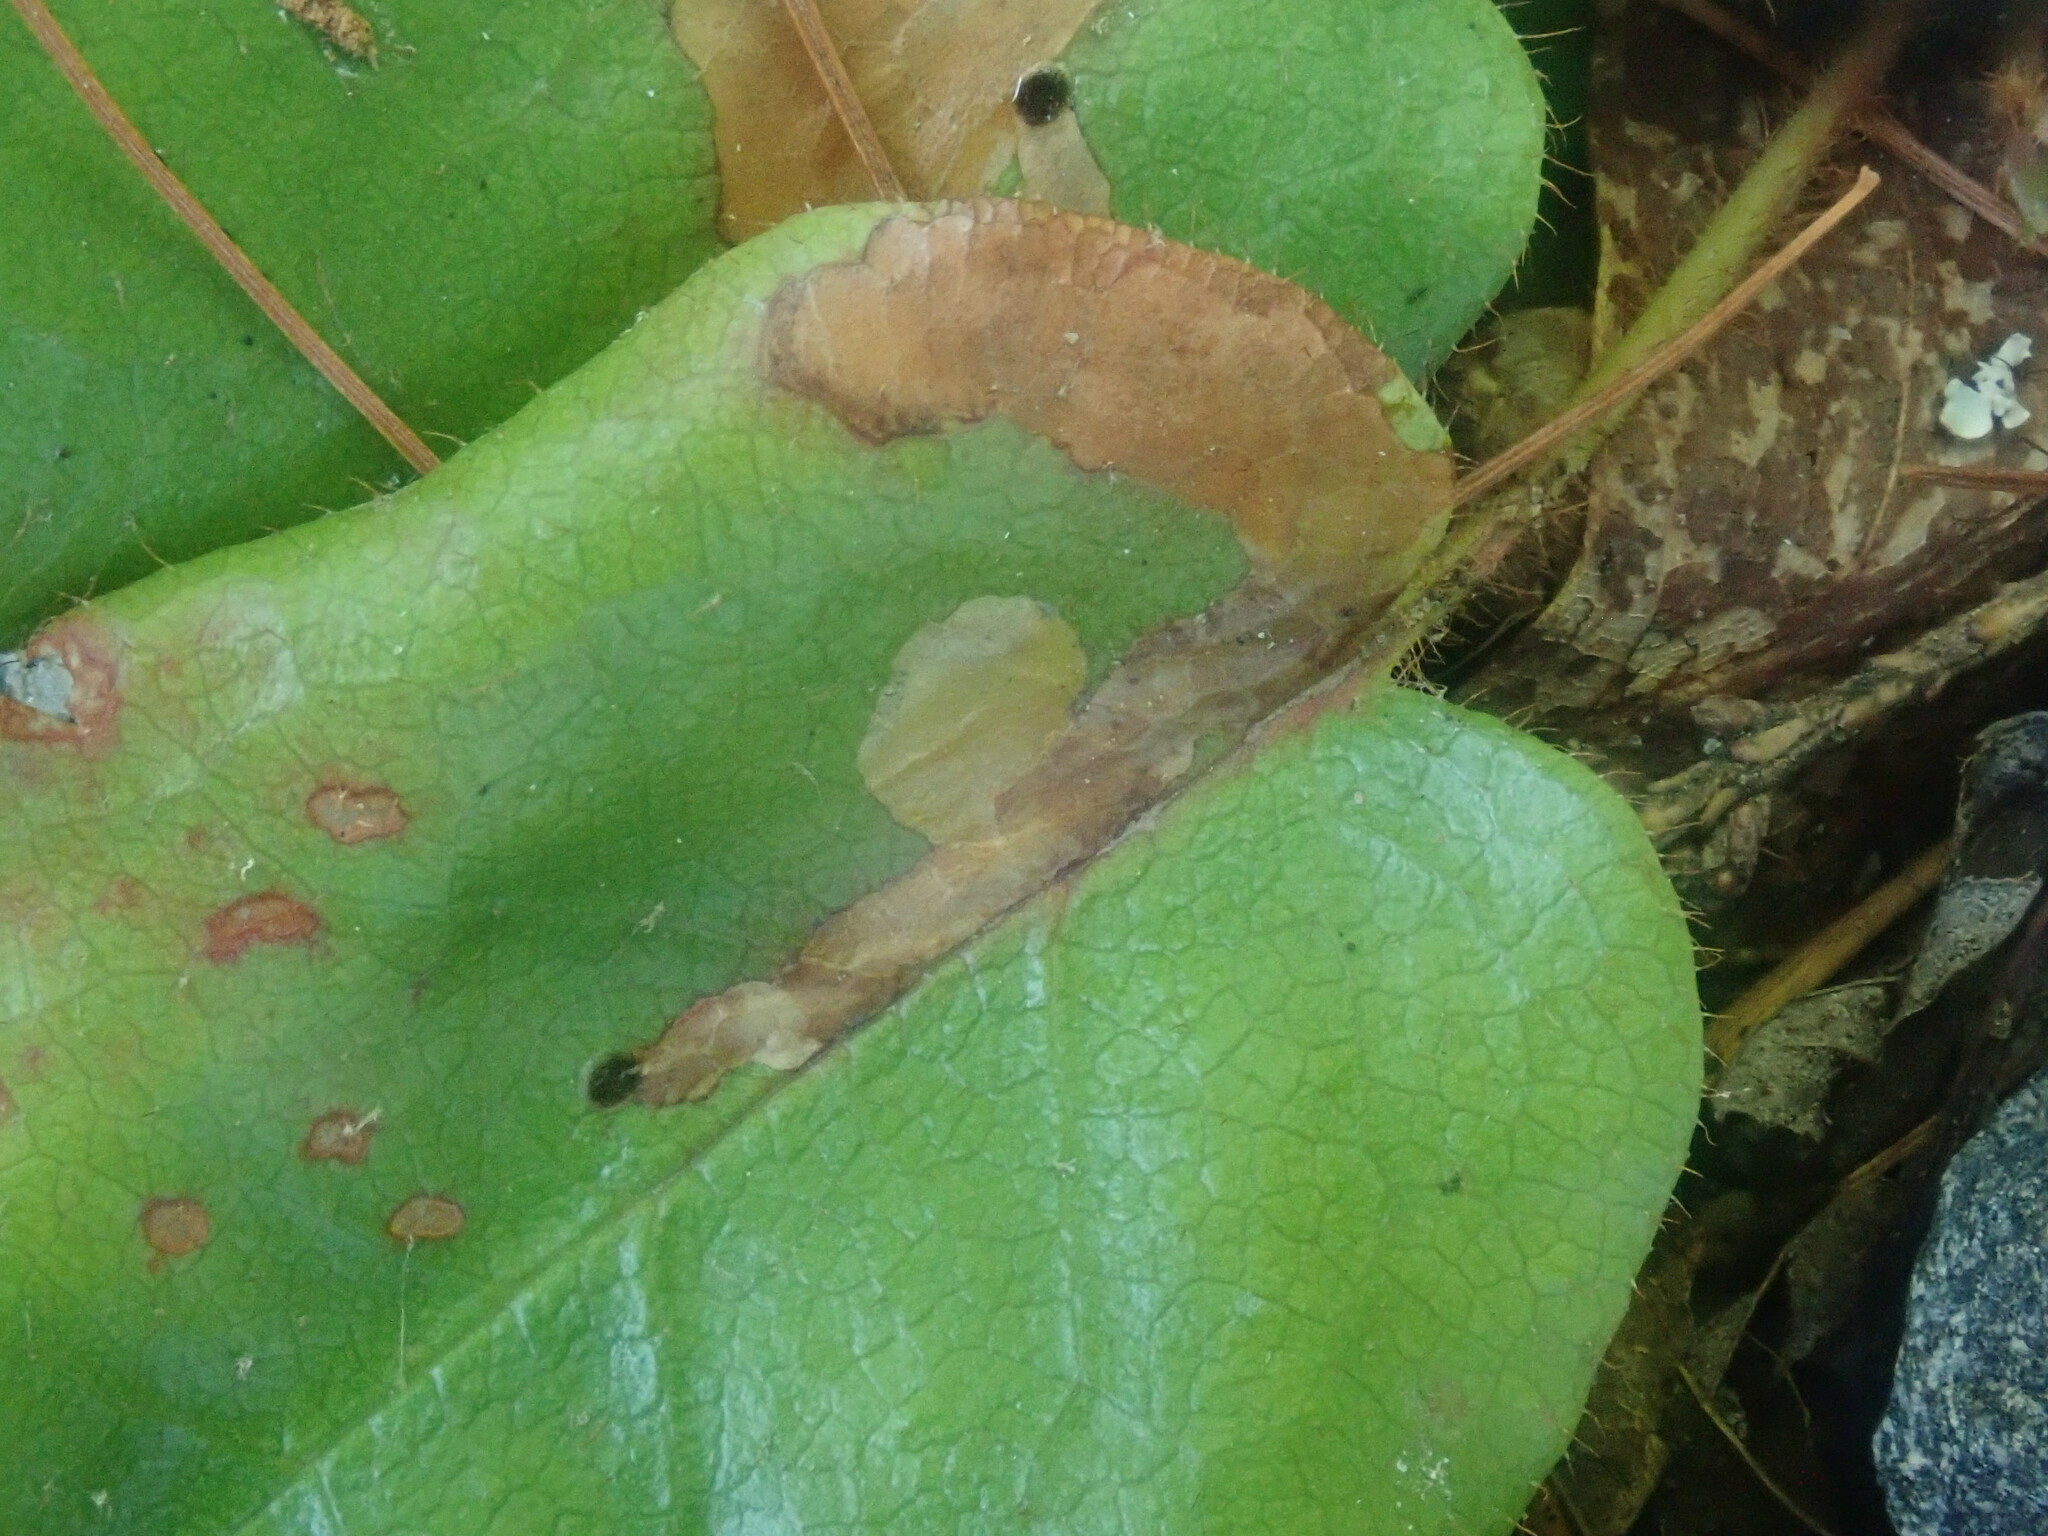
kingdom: Animalia
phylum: Arthropoda
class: Insecta
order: Coleoptera
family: Buprestidae
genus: Brachys
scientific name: Brachys
